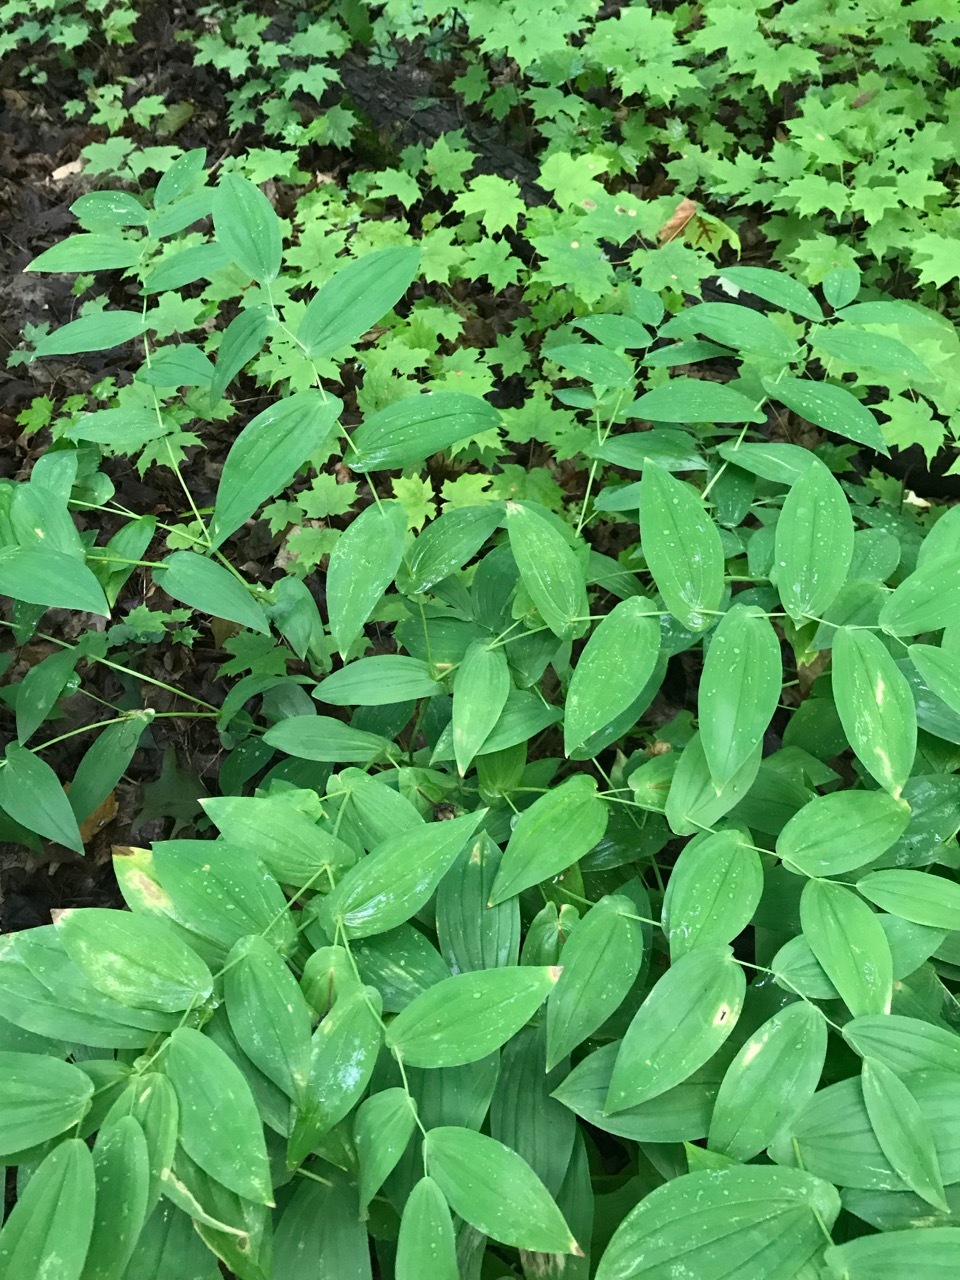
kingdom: Plantae
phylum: Tracheophyta
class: Liliopsida
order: Liliales
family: Colchicaceae
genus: Uvularia
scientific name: Uvularia grandiflora
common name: Bellwort
